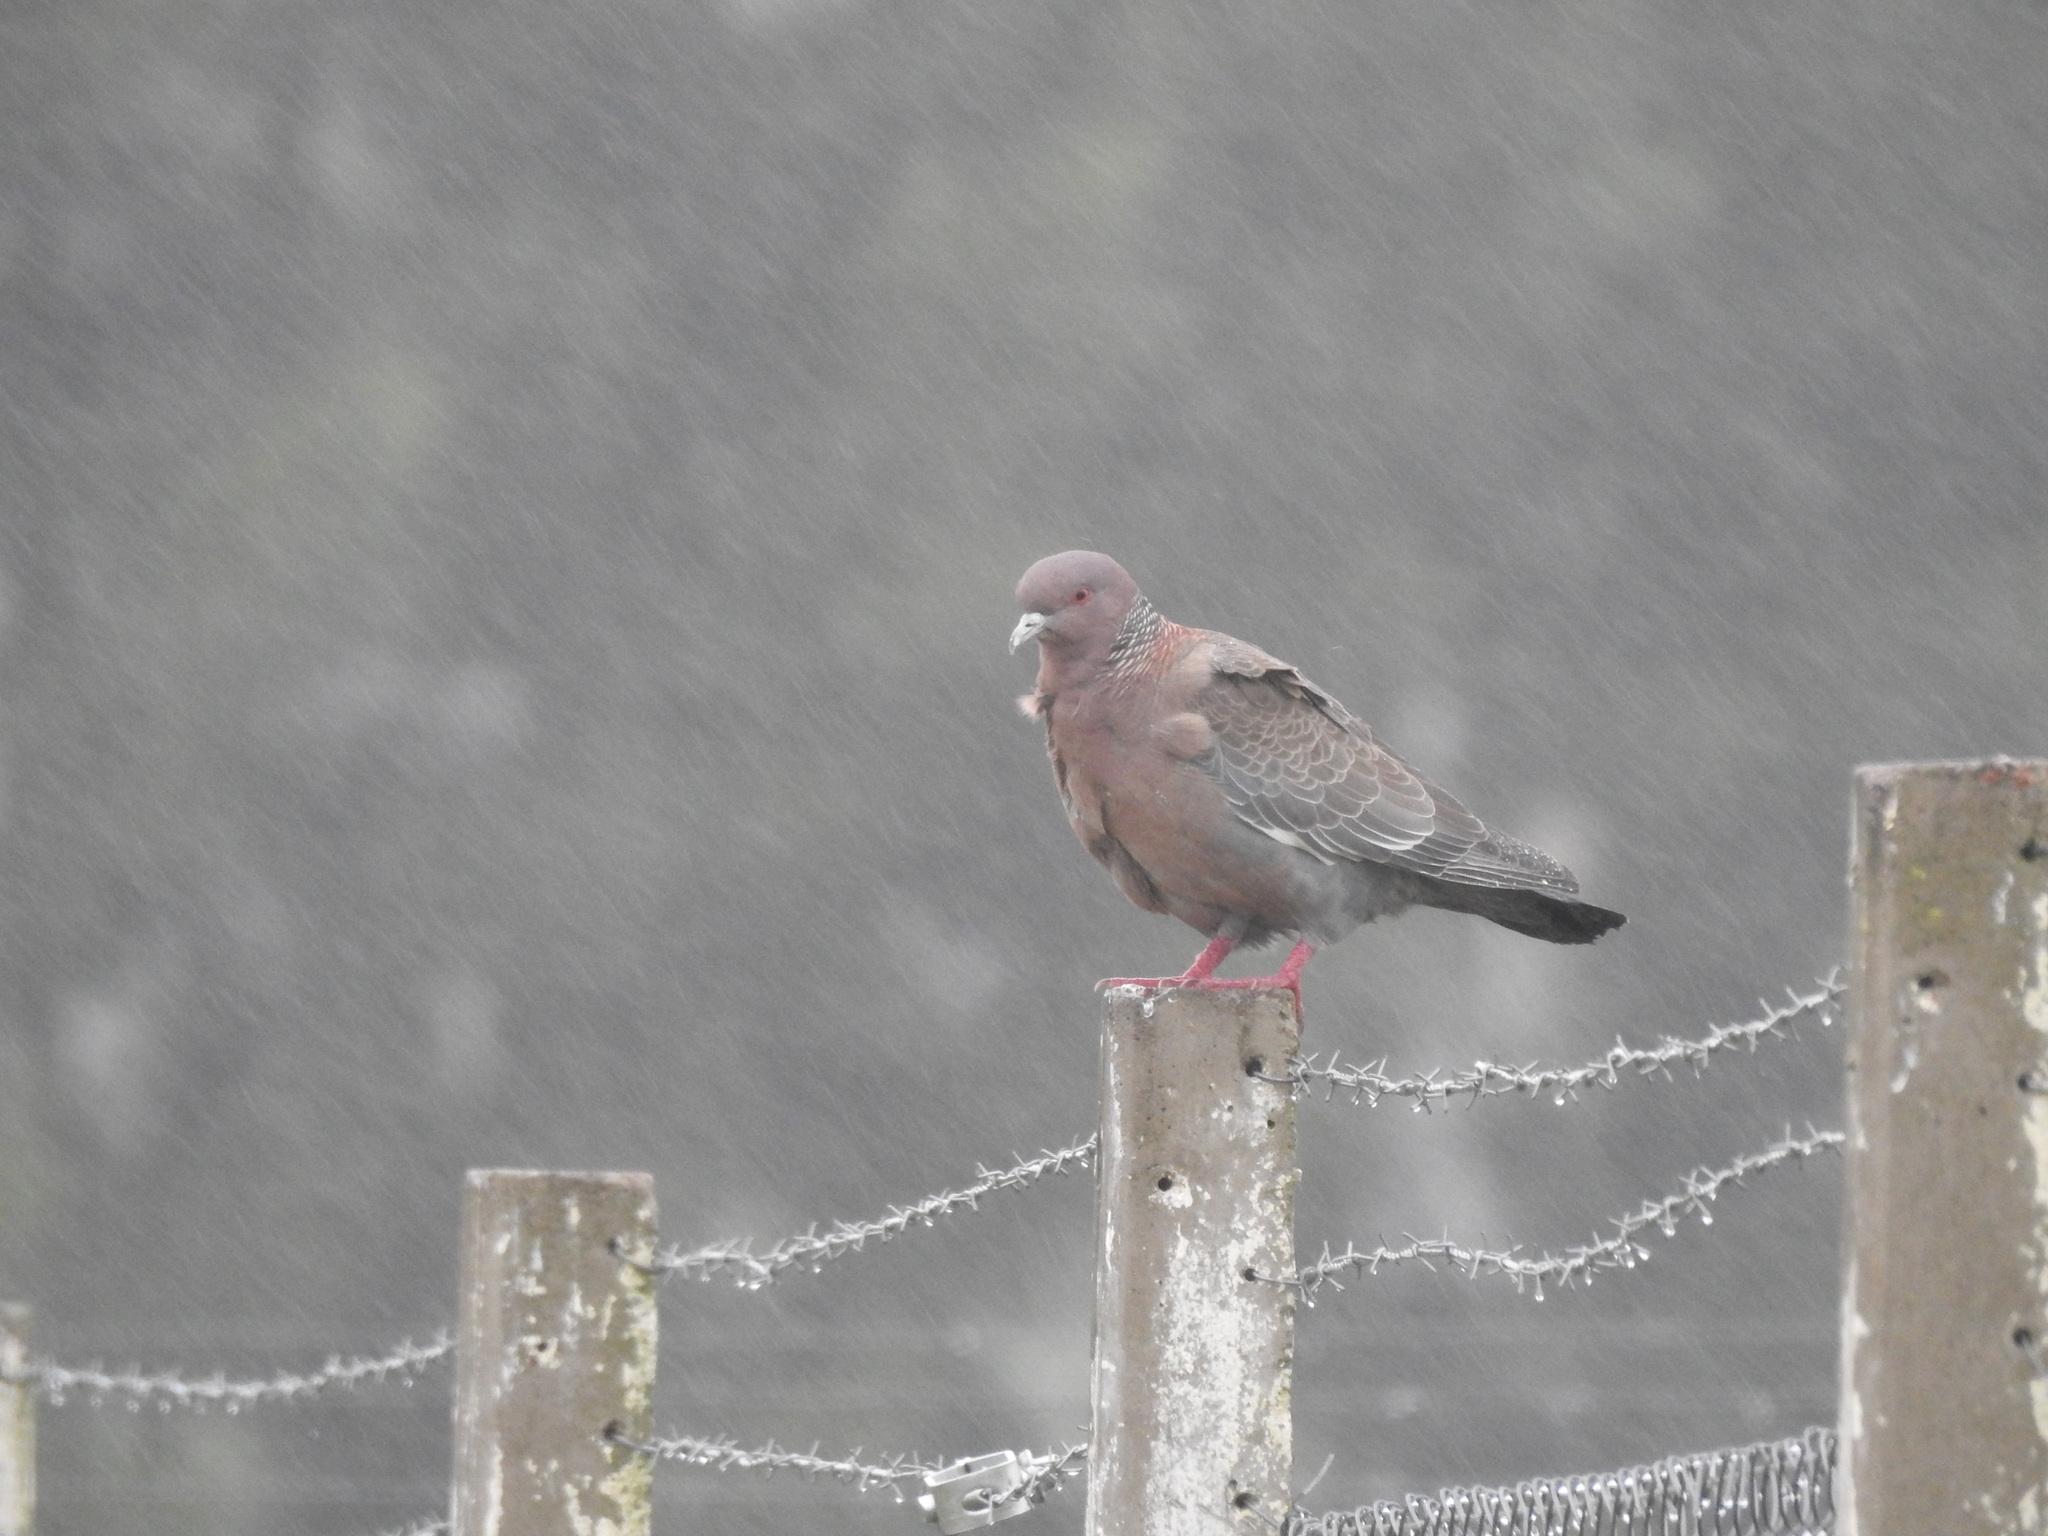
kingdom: Animalia
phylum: Chordata
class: Aves
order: Columbiformes
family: Columbidae
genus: Patagioenas
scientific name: Patagioenas picazuro
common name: Picazuro pigeon
